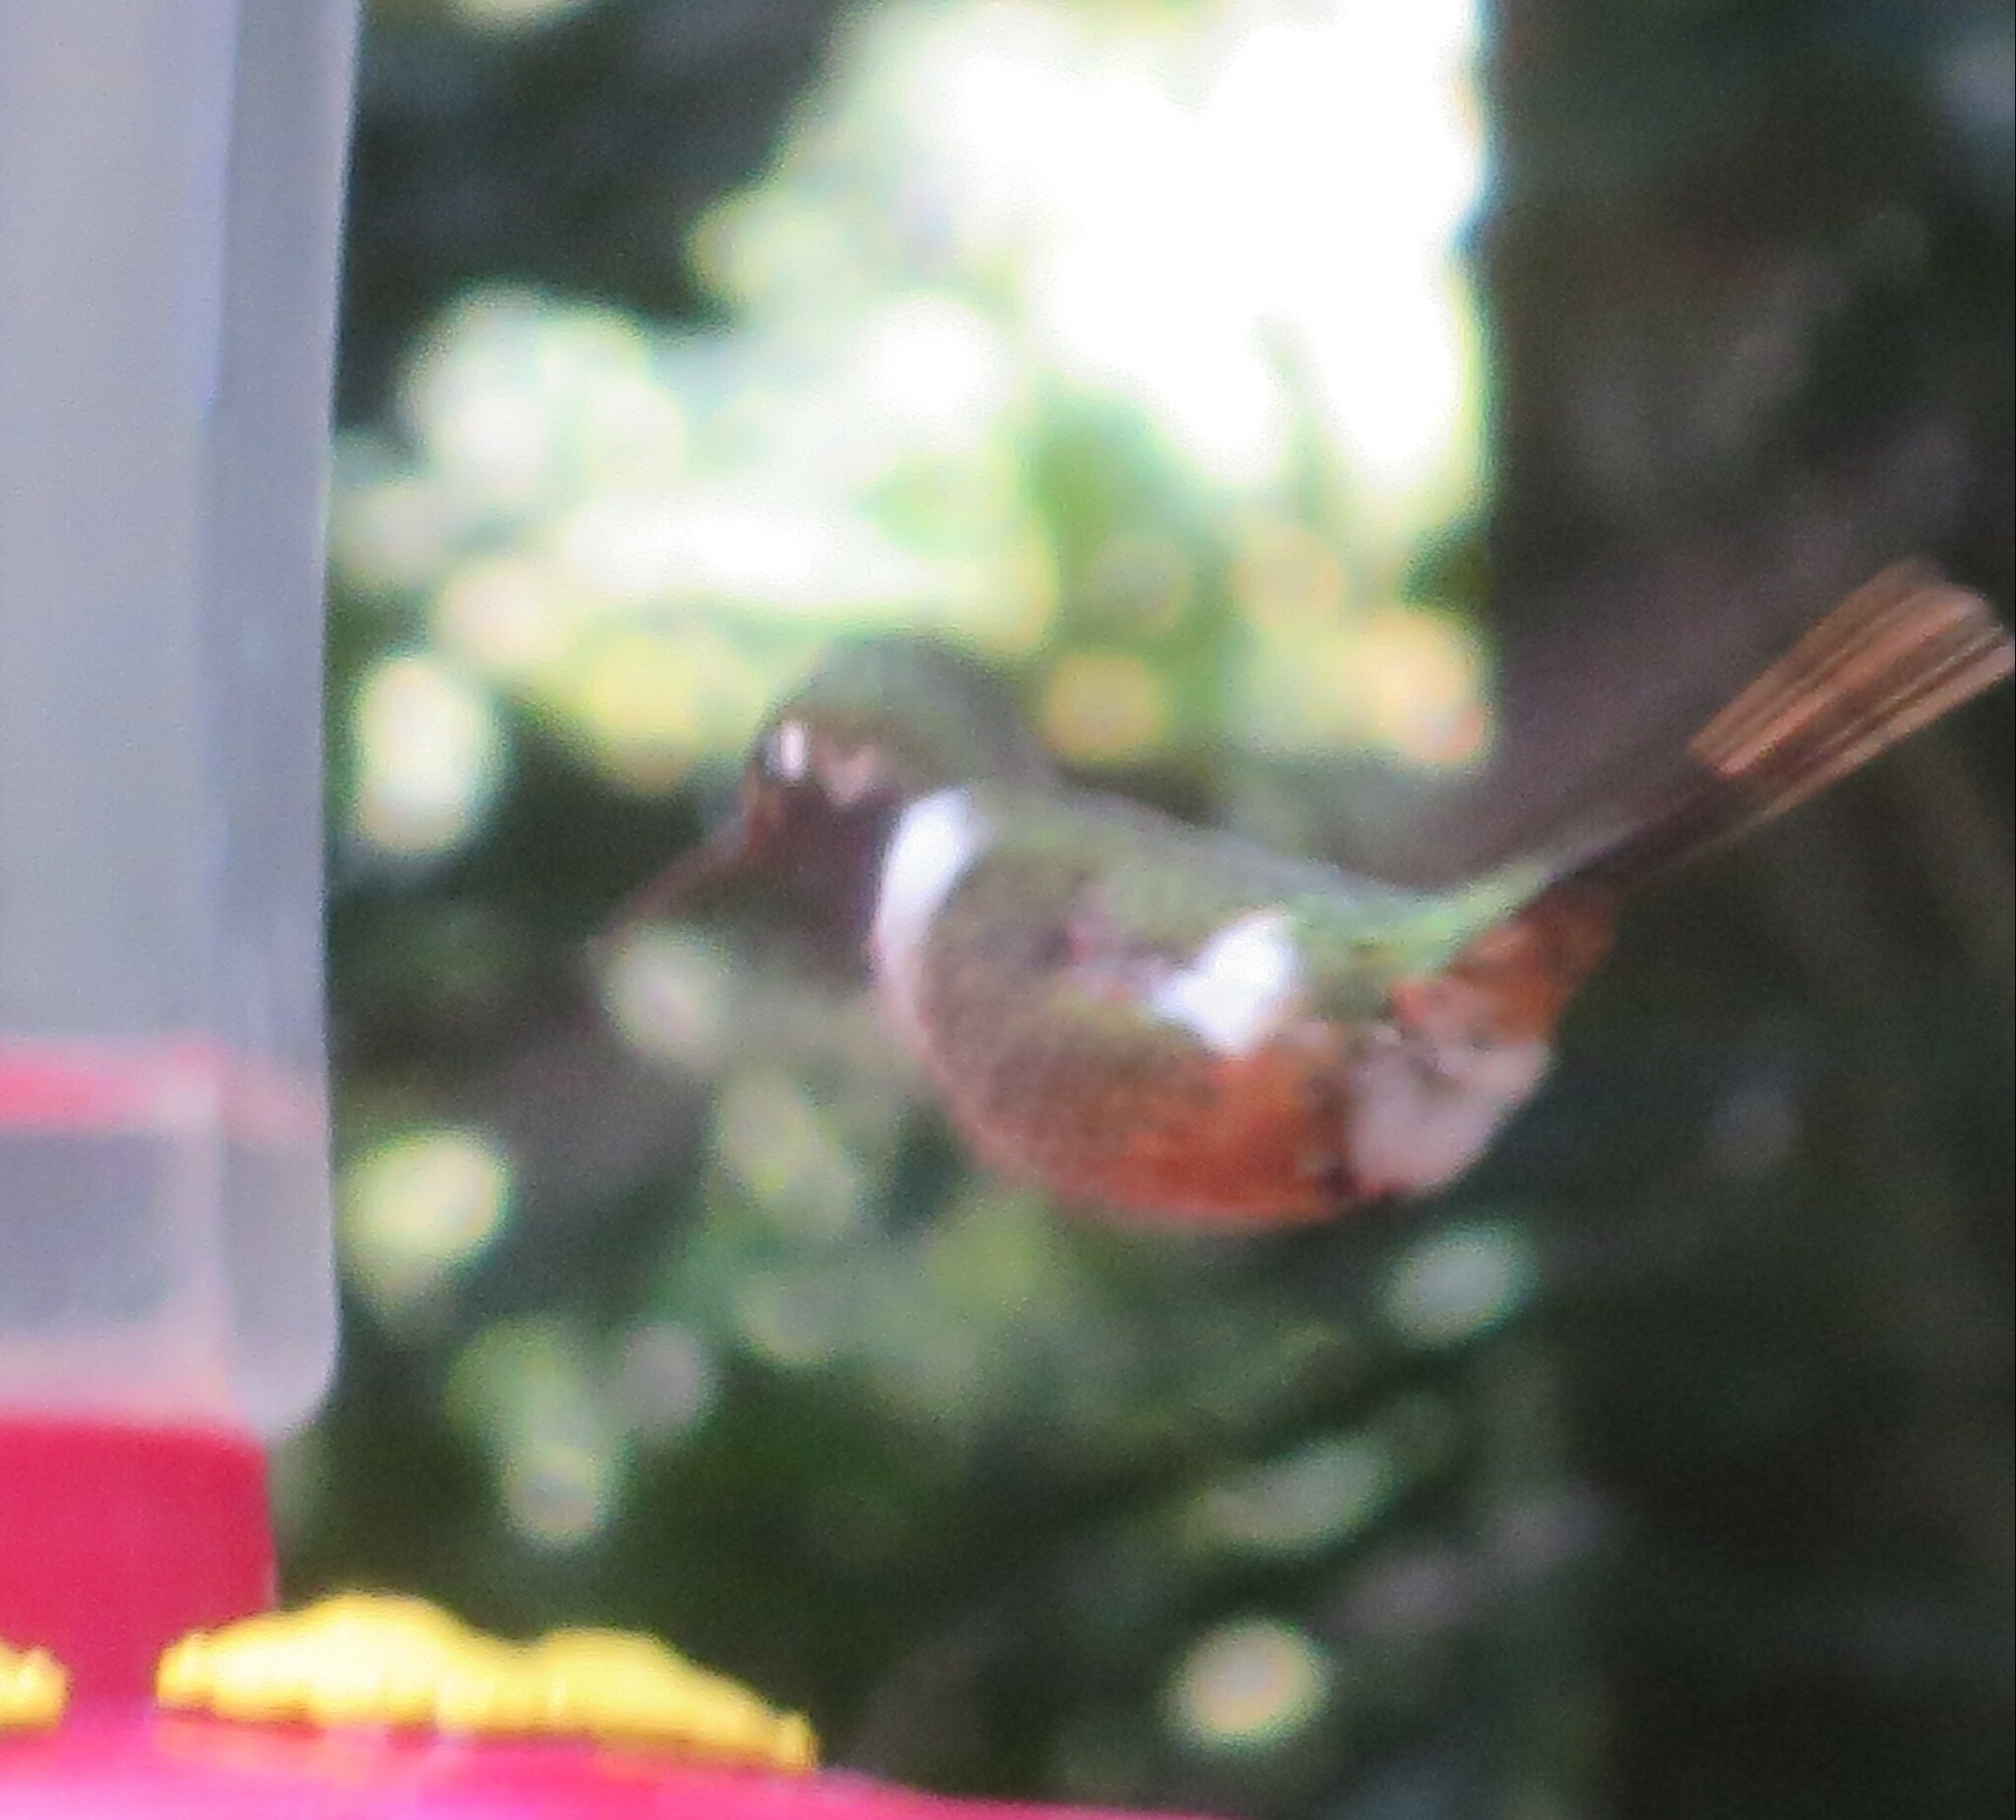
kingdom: Animalia
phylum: Chordata
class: Aves
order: Apodiformes
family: Trochilidae
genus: Calliphlox
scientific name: Calliphlox bryantae
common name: Magenta-throated woodstar
